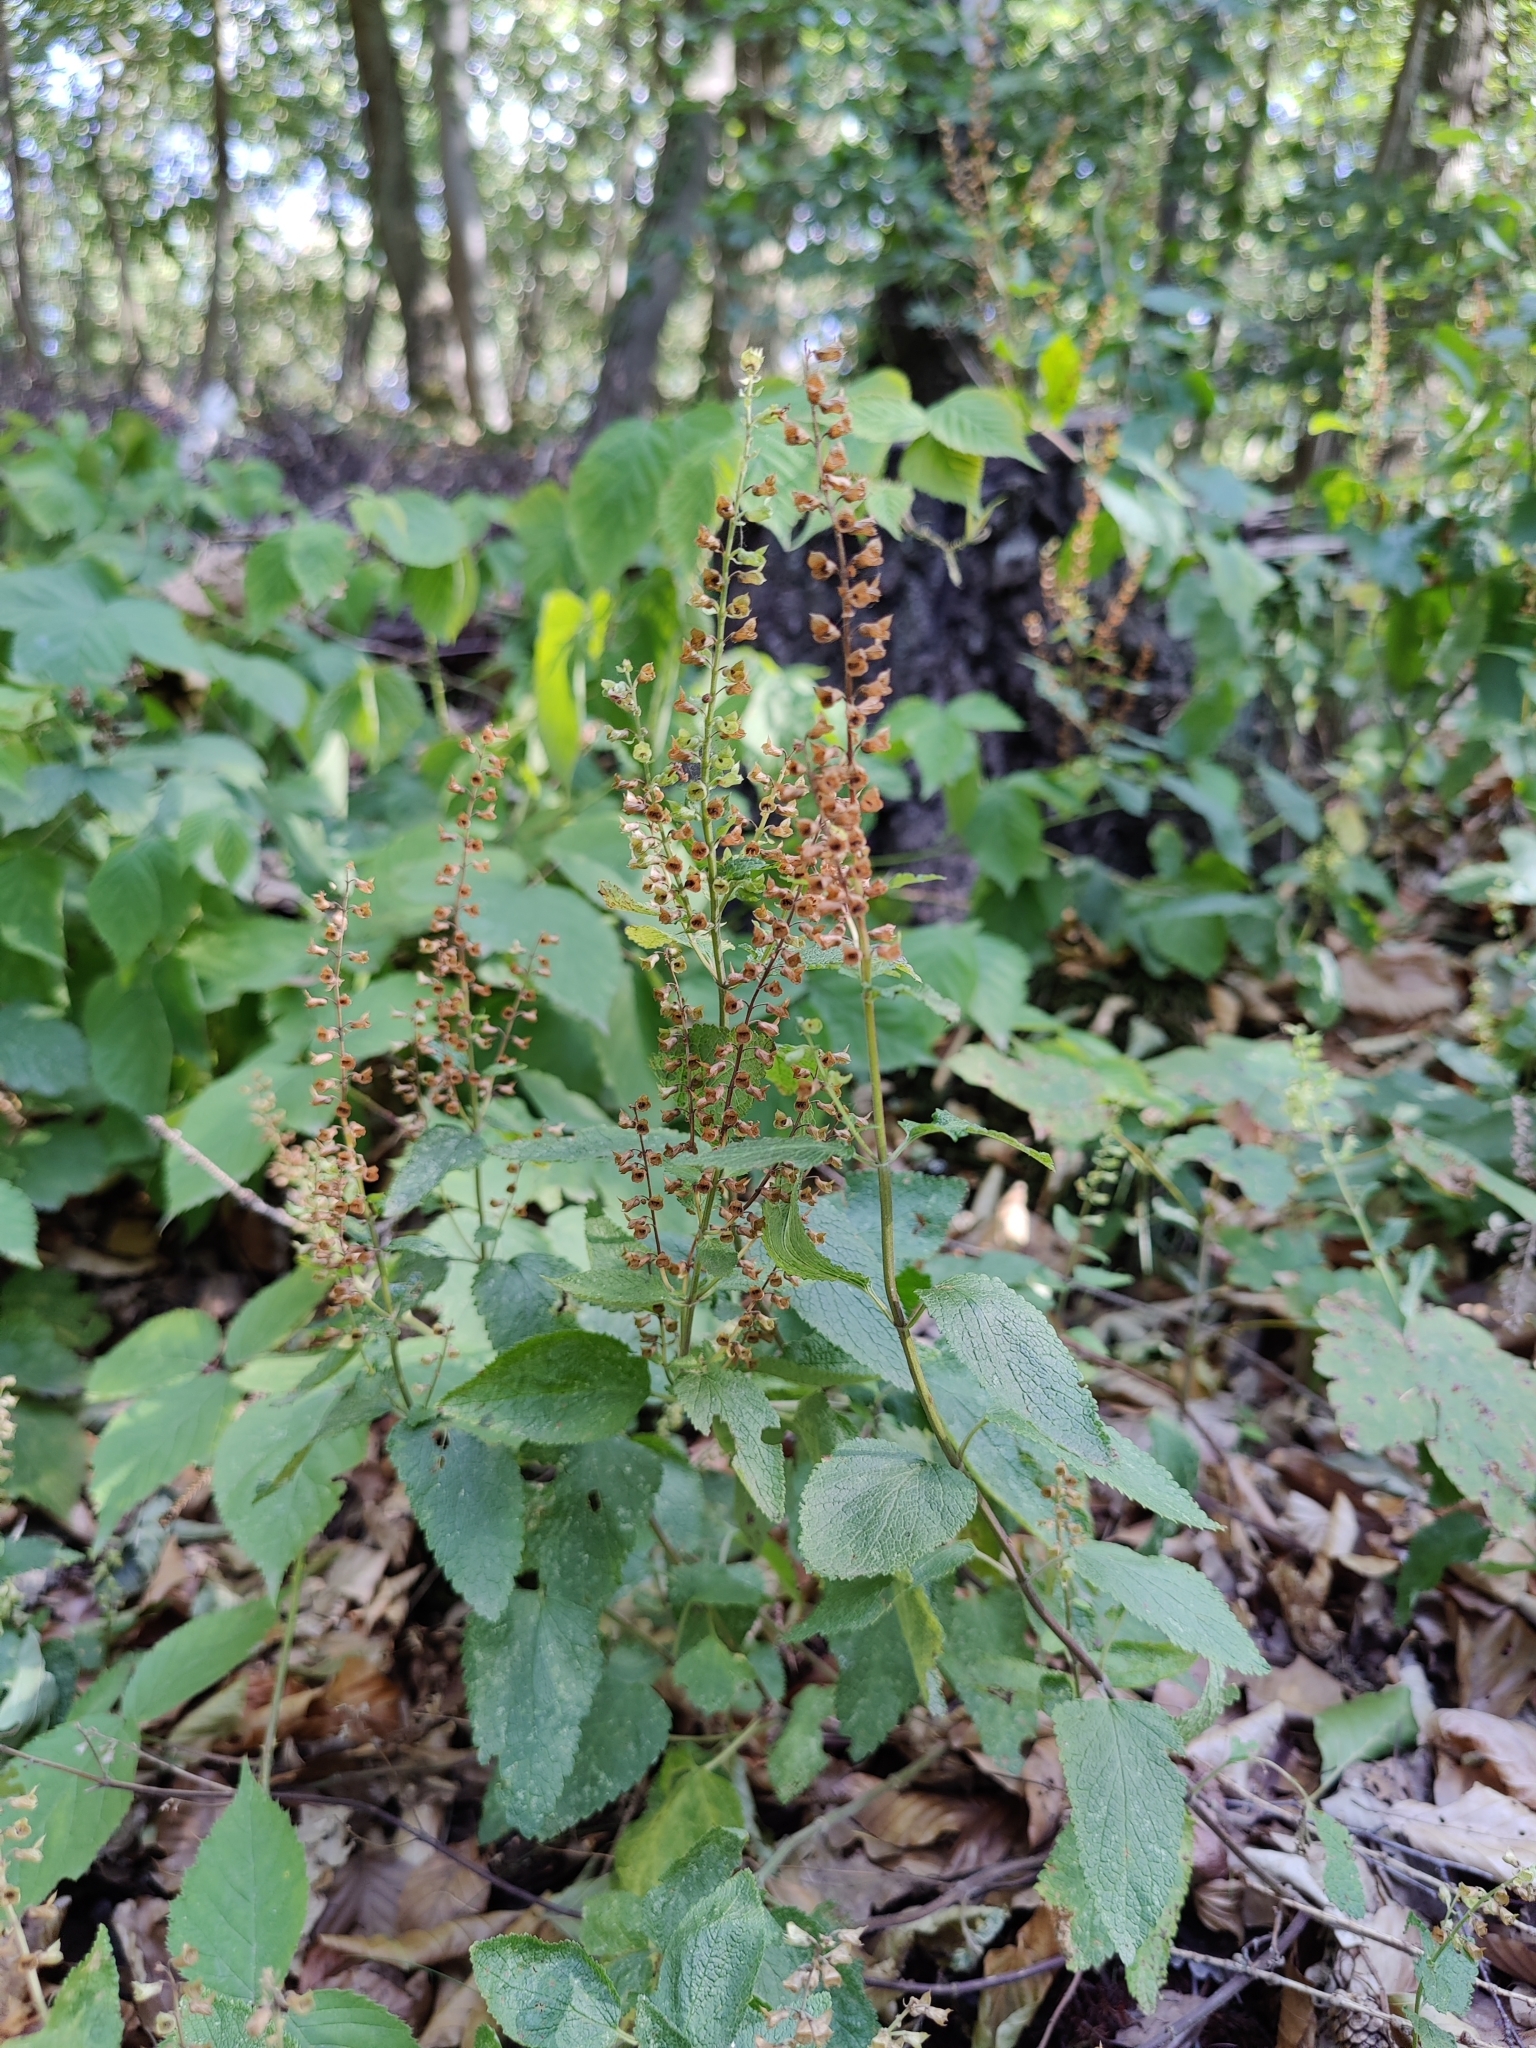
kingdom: Plantae
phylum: Tracheophyta
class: Magnoliopsida
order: Lamiales
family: Lamiaceae
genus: Teucrium
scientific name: Teucrium scorodonia
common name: Woodland germander
